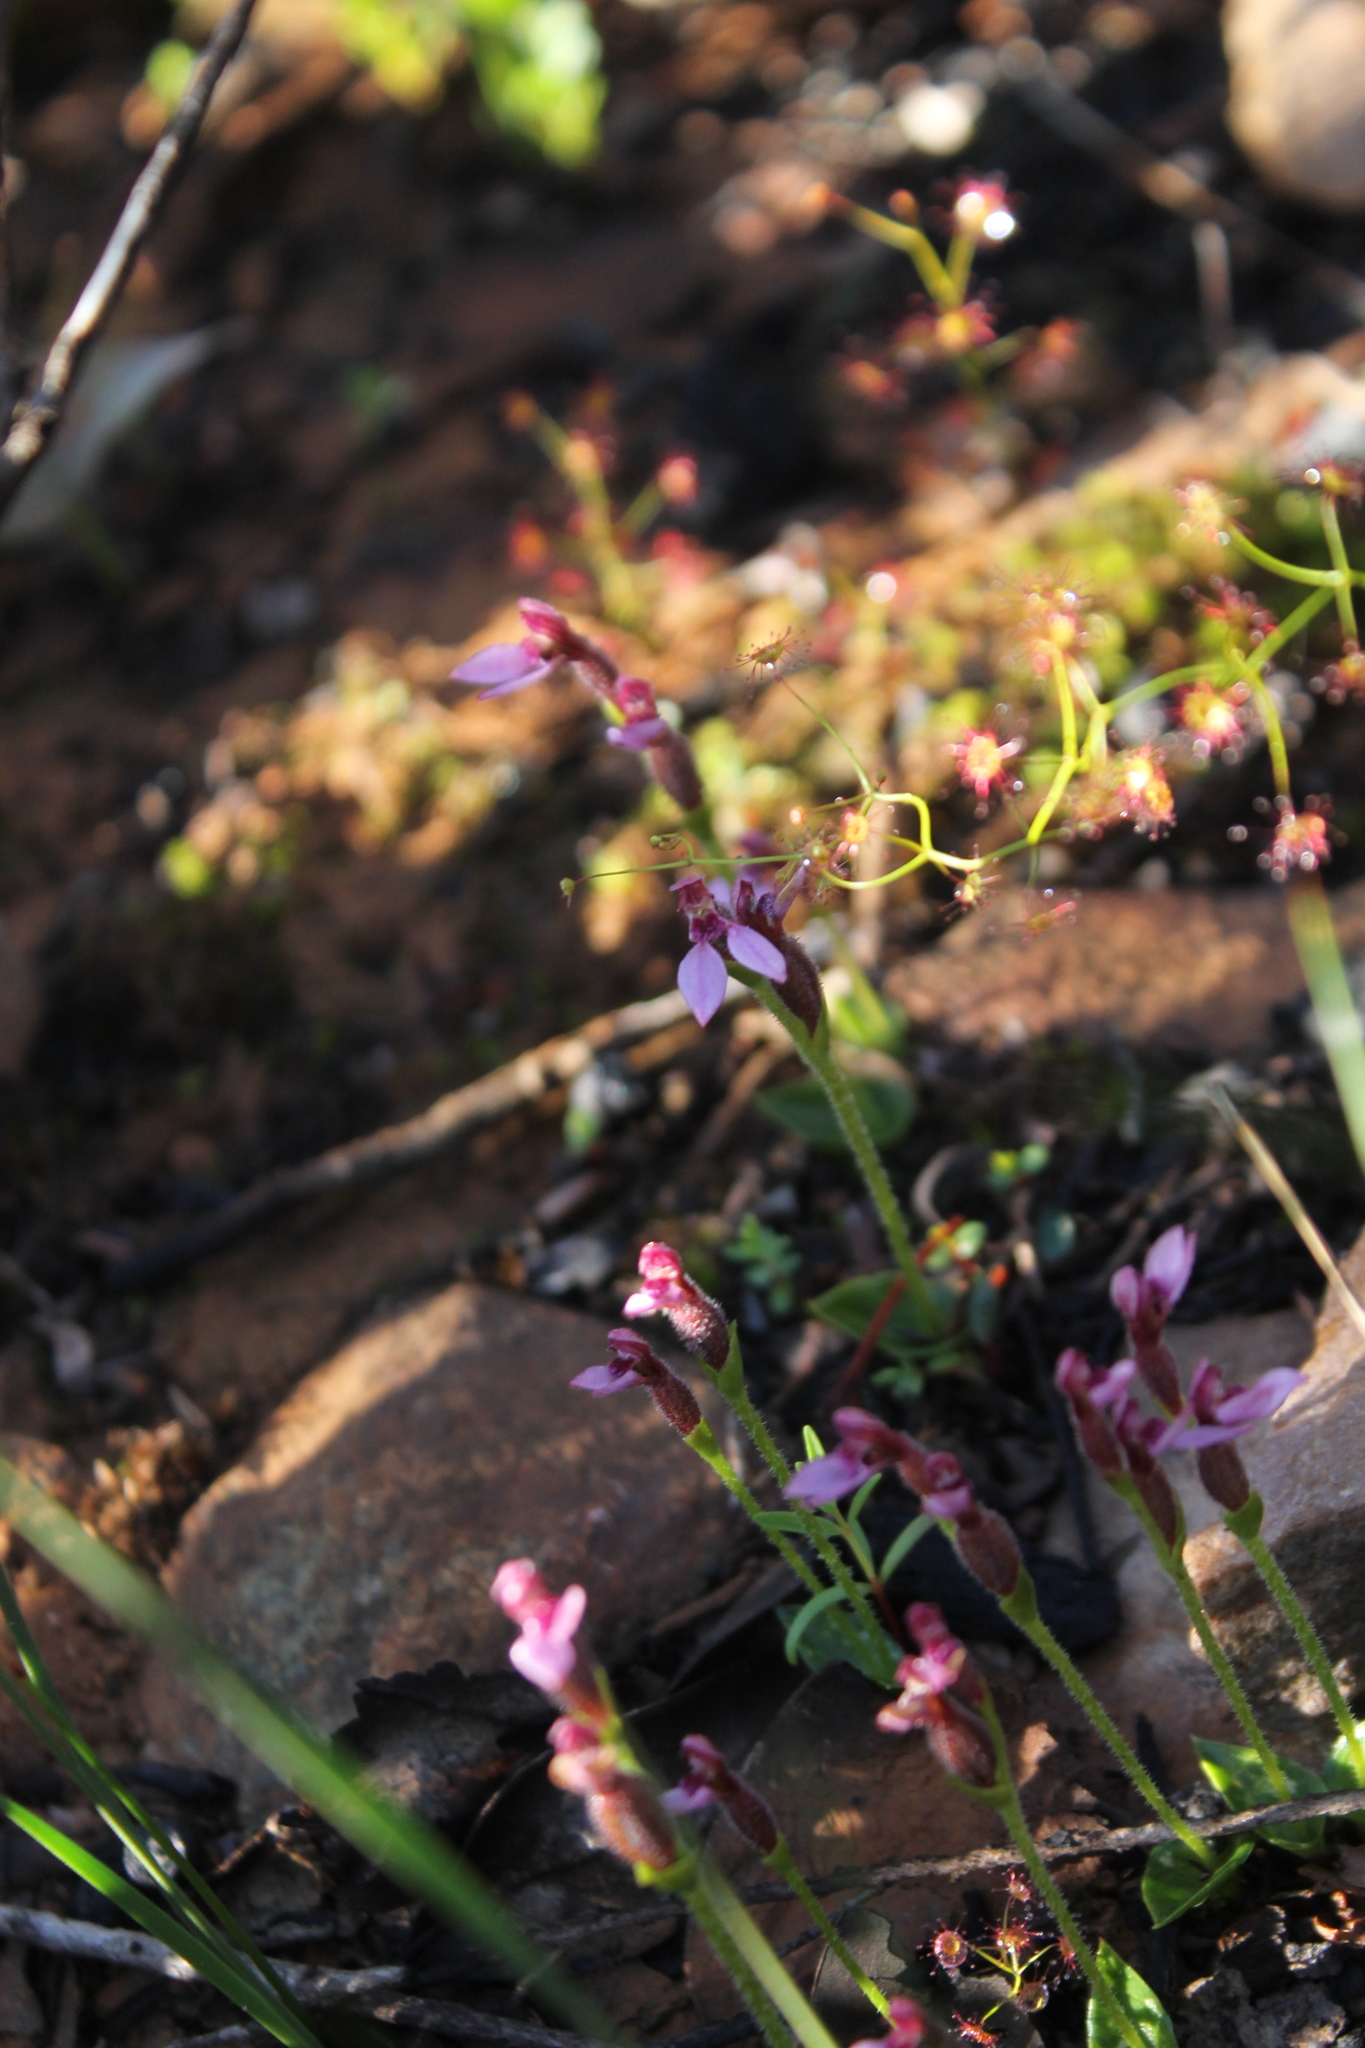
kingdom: Plantae
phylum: Tracheophyta
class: Liliopsida
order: Asparagales
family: Orchidaceae
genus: Eriochilus
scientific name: Eriochilus scaber
